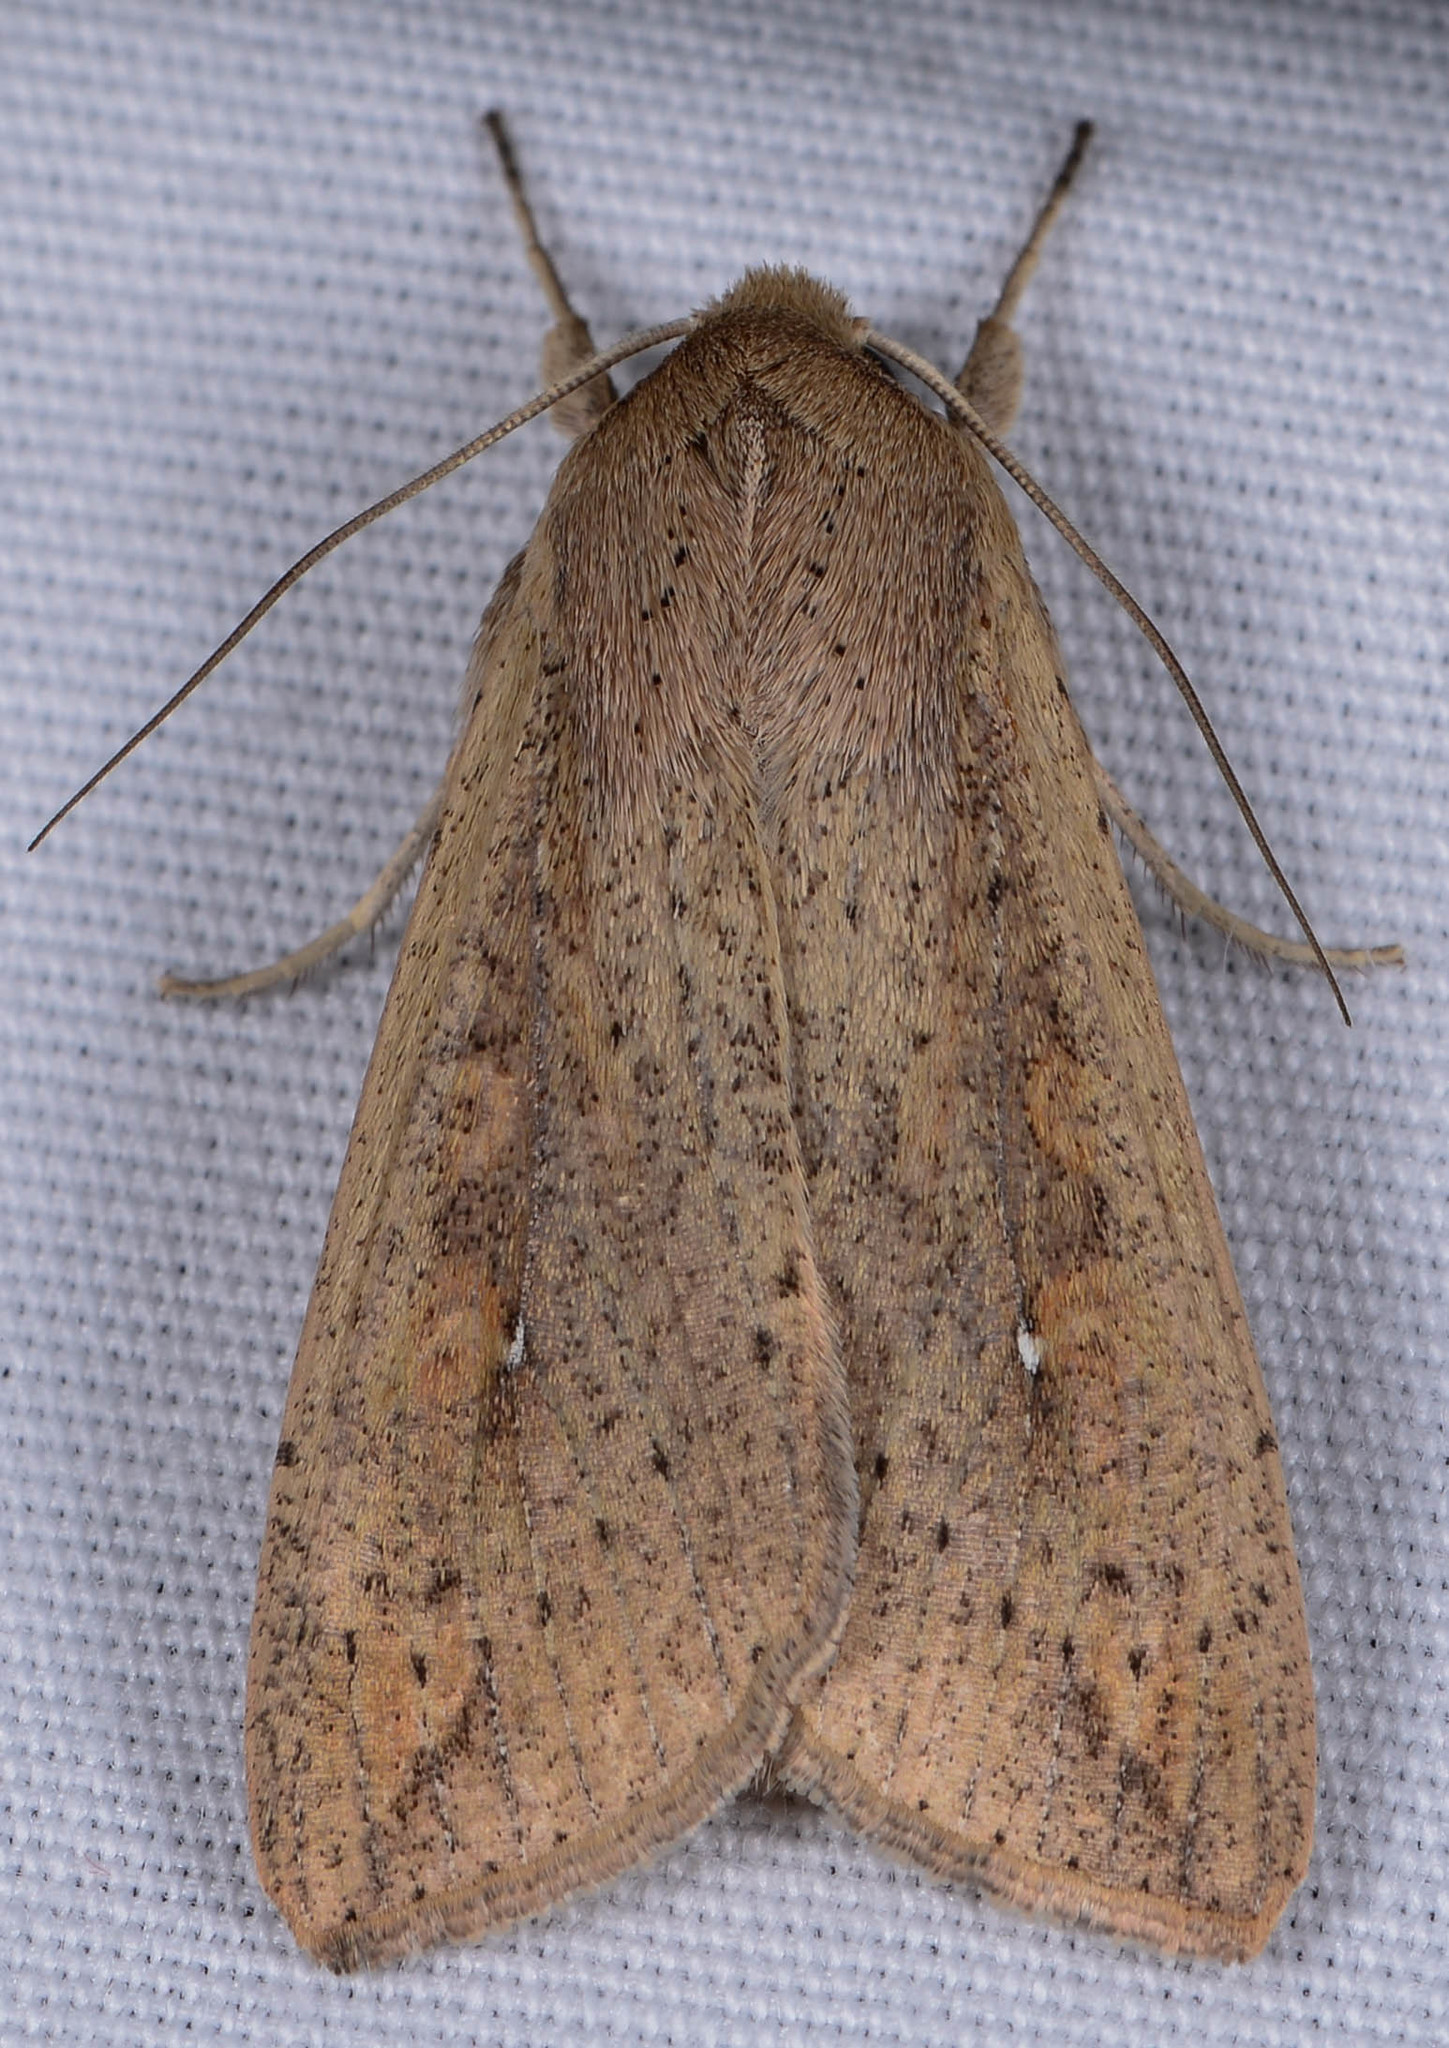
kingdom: Animalia
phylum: Arthropoda
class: Insecta
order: Lepidoptera
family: Noctuidae
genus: Mythimna
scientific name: Mythimna unipuncta
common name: White-speck
